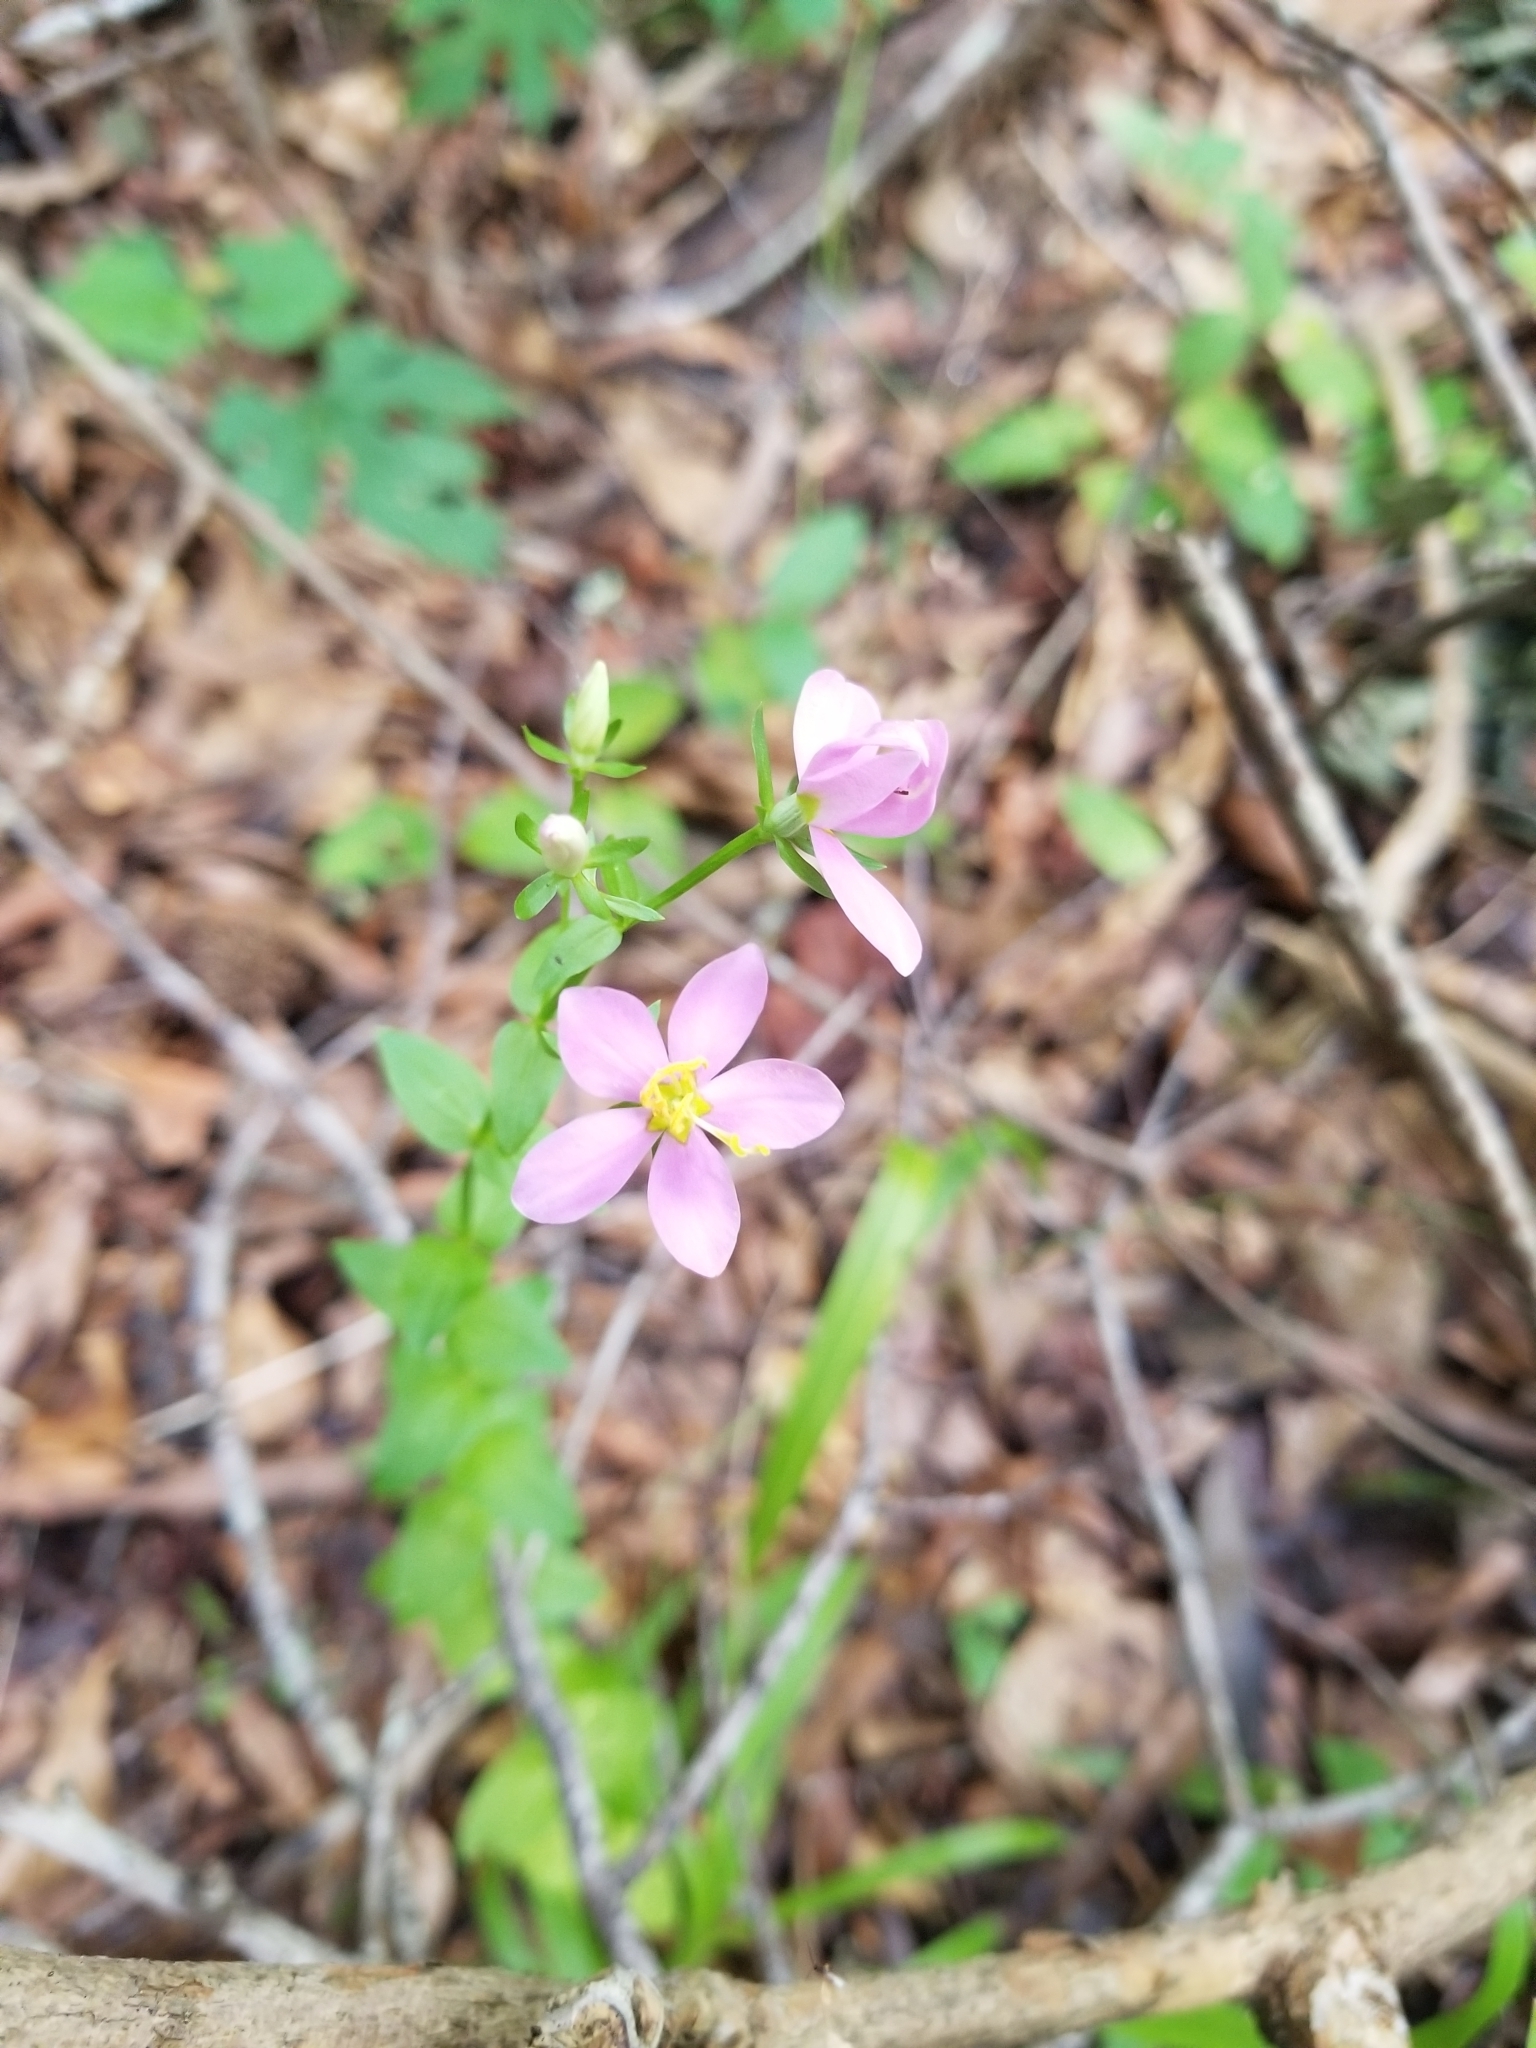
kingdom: Plantae
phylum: Tracheophyta
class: Magnoliopsida
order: Gentianales
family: Gentianaceae
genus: Sabatia
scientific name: Sabatia angularis
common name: Rose-pink
